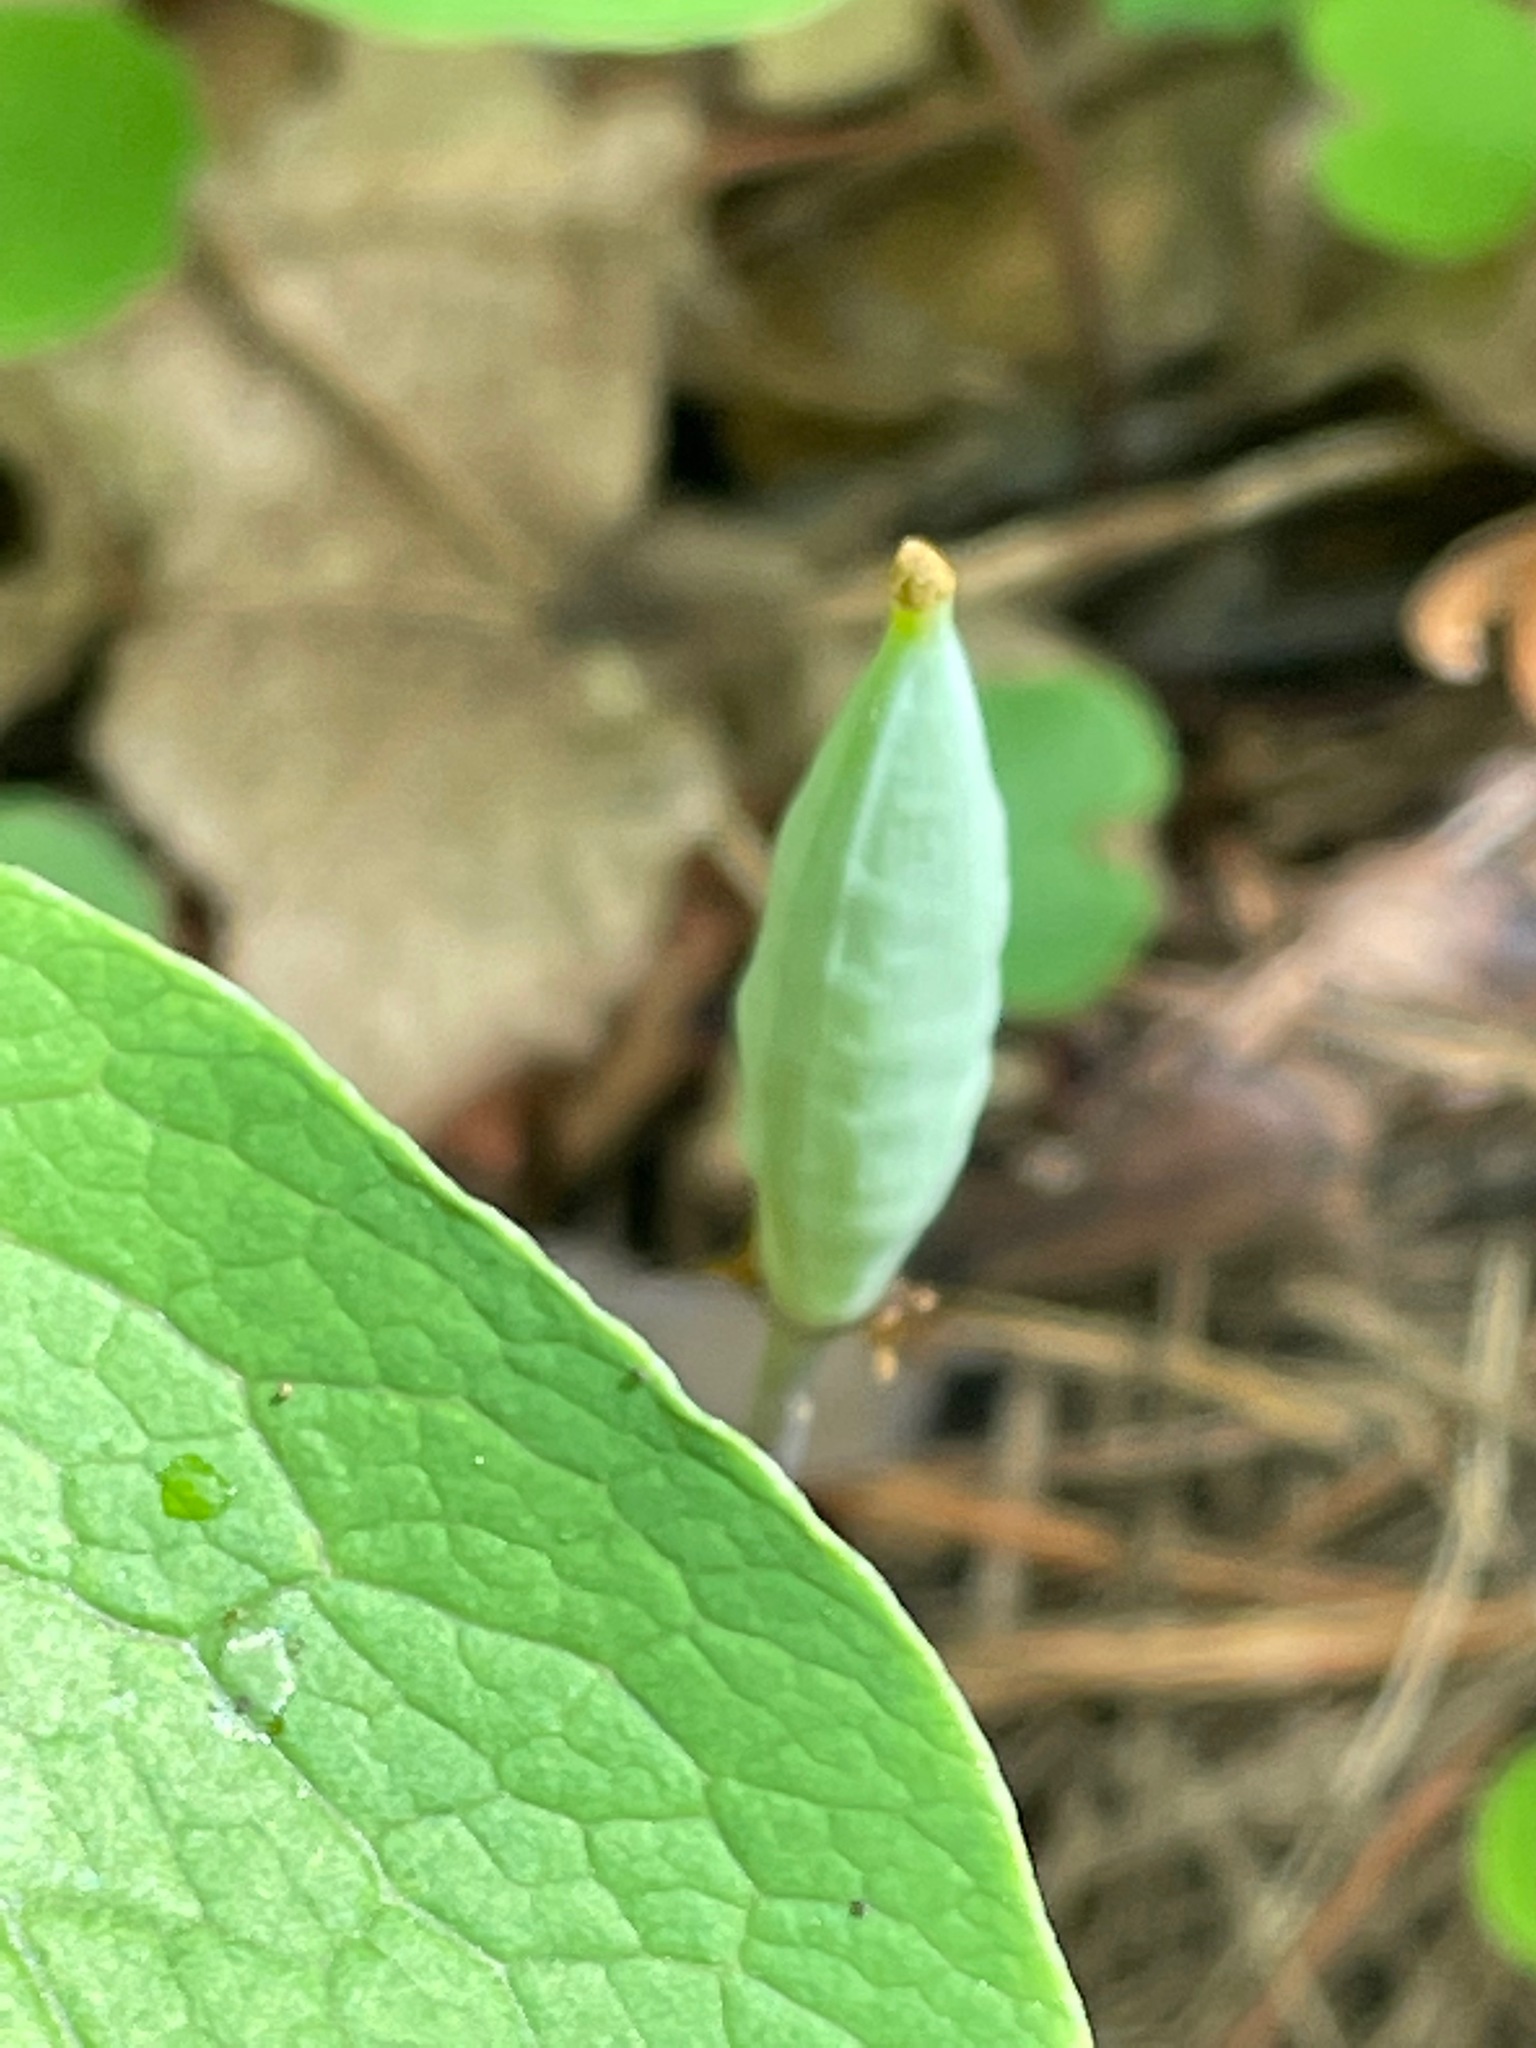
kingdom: Plantae
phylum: Tracheophyta
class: Magnoliopsida
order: Ranunculales
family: Papaveraceae
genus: Sanguinaria
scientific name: Sanguinaria canadensis
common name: Bloodroot
